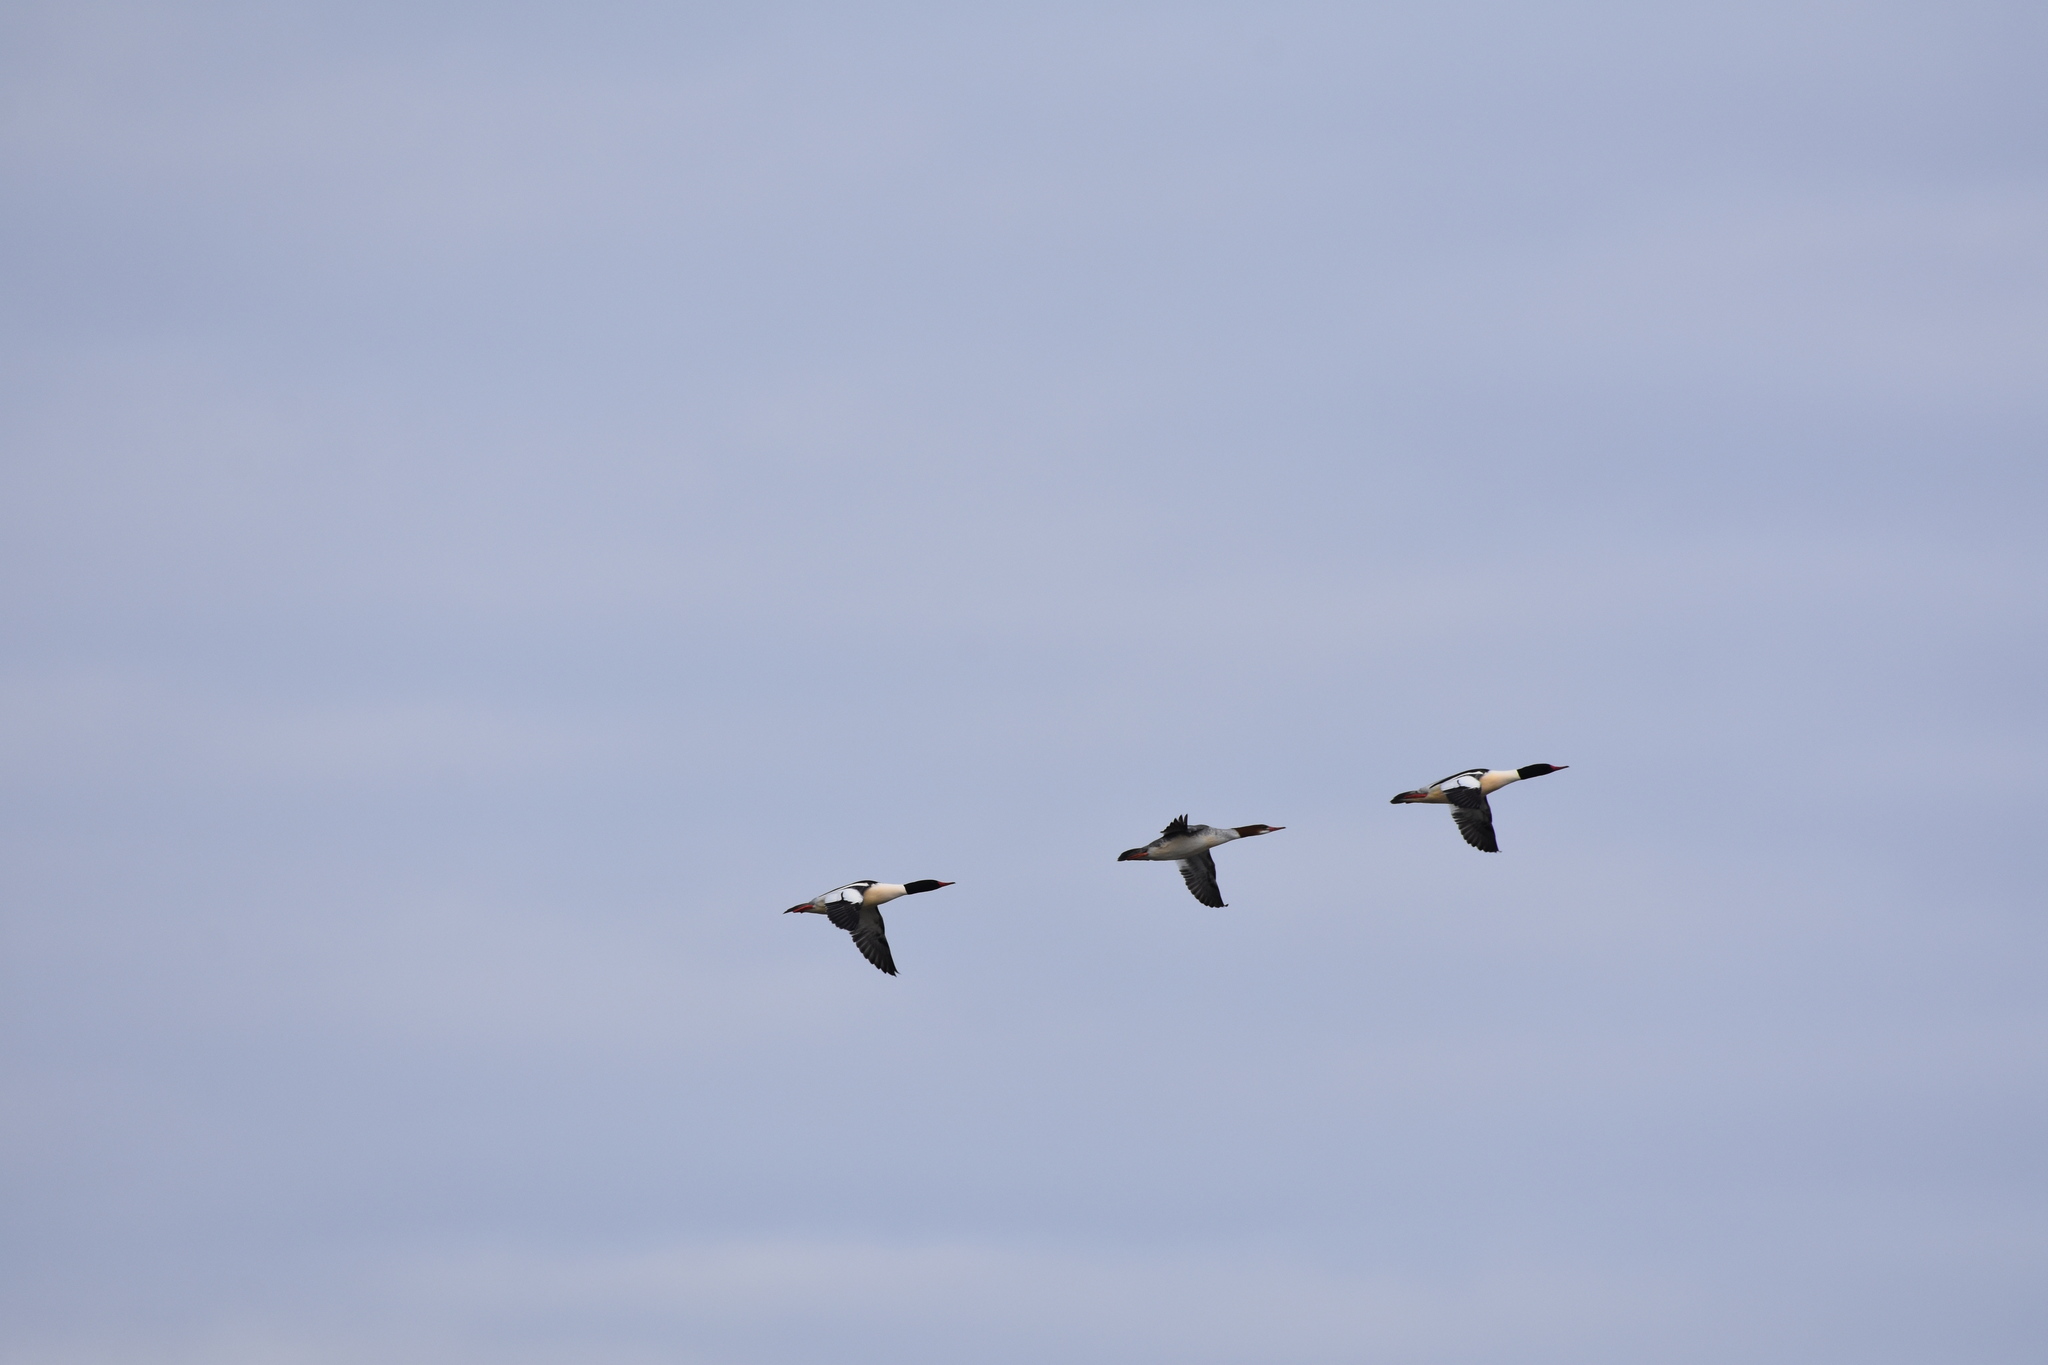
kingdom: Animalia
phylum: Chordata
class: Aves
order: Anseriformes
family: Anatidae
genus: Mergus
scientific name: Mergus merganser
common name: Common merganser
